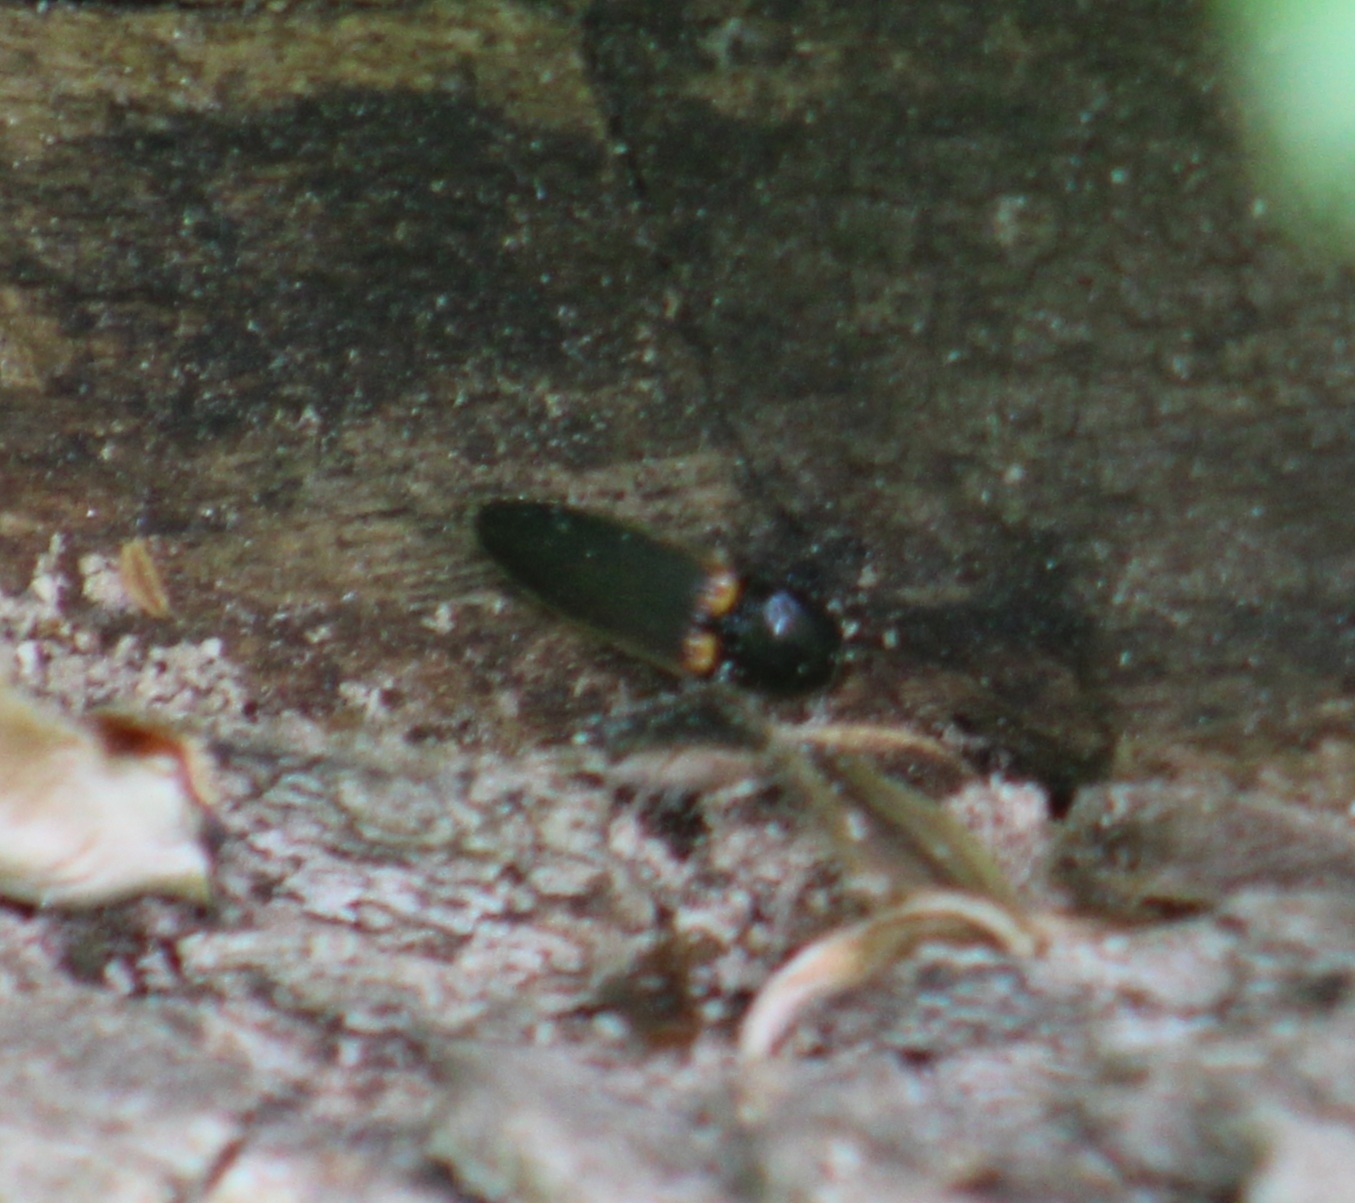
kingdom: Animalia
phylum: Arthropoda
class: Insecta
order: Coleoptera
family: Elateridae
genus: Ampedus
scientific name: Ampedus semicinctus
